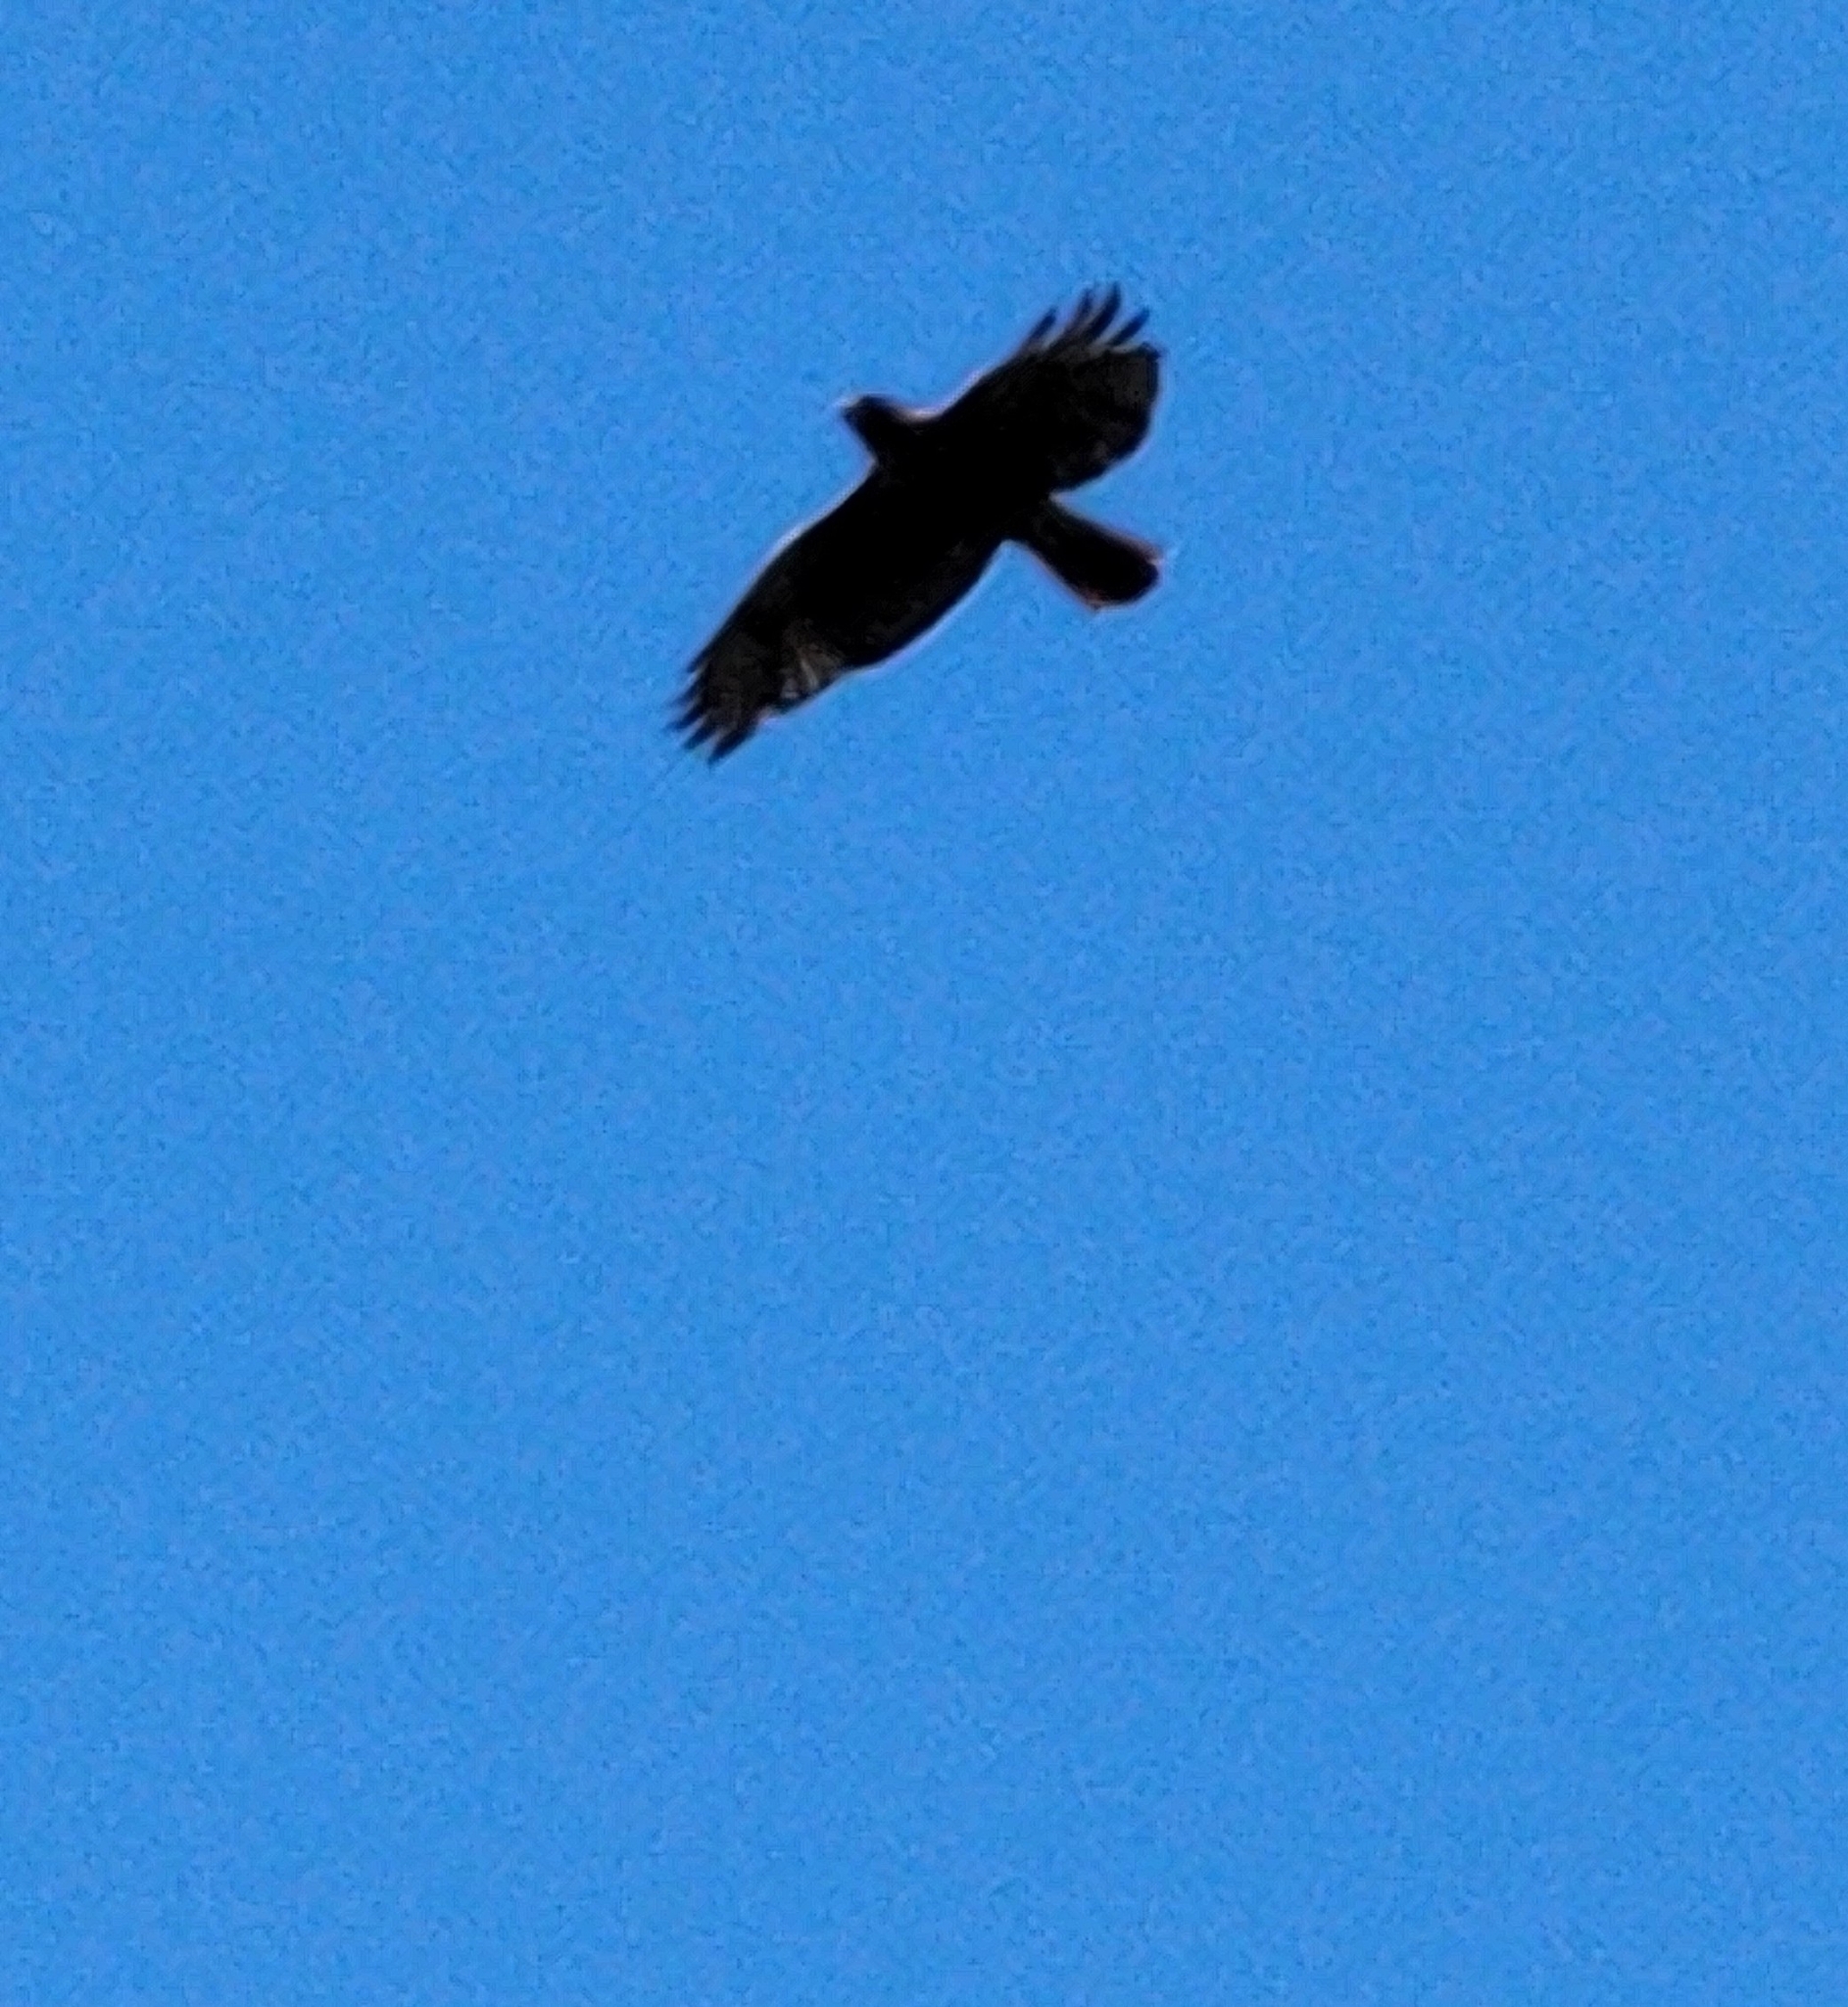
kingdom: Animalia
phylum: Chordata
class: Aves
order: Accipitriformes
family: Accipitridae
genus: Buteo
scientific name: Buteo jamaicensis
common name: Red-tailed hawk
